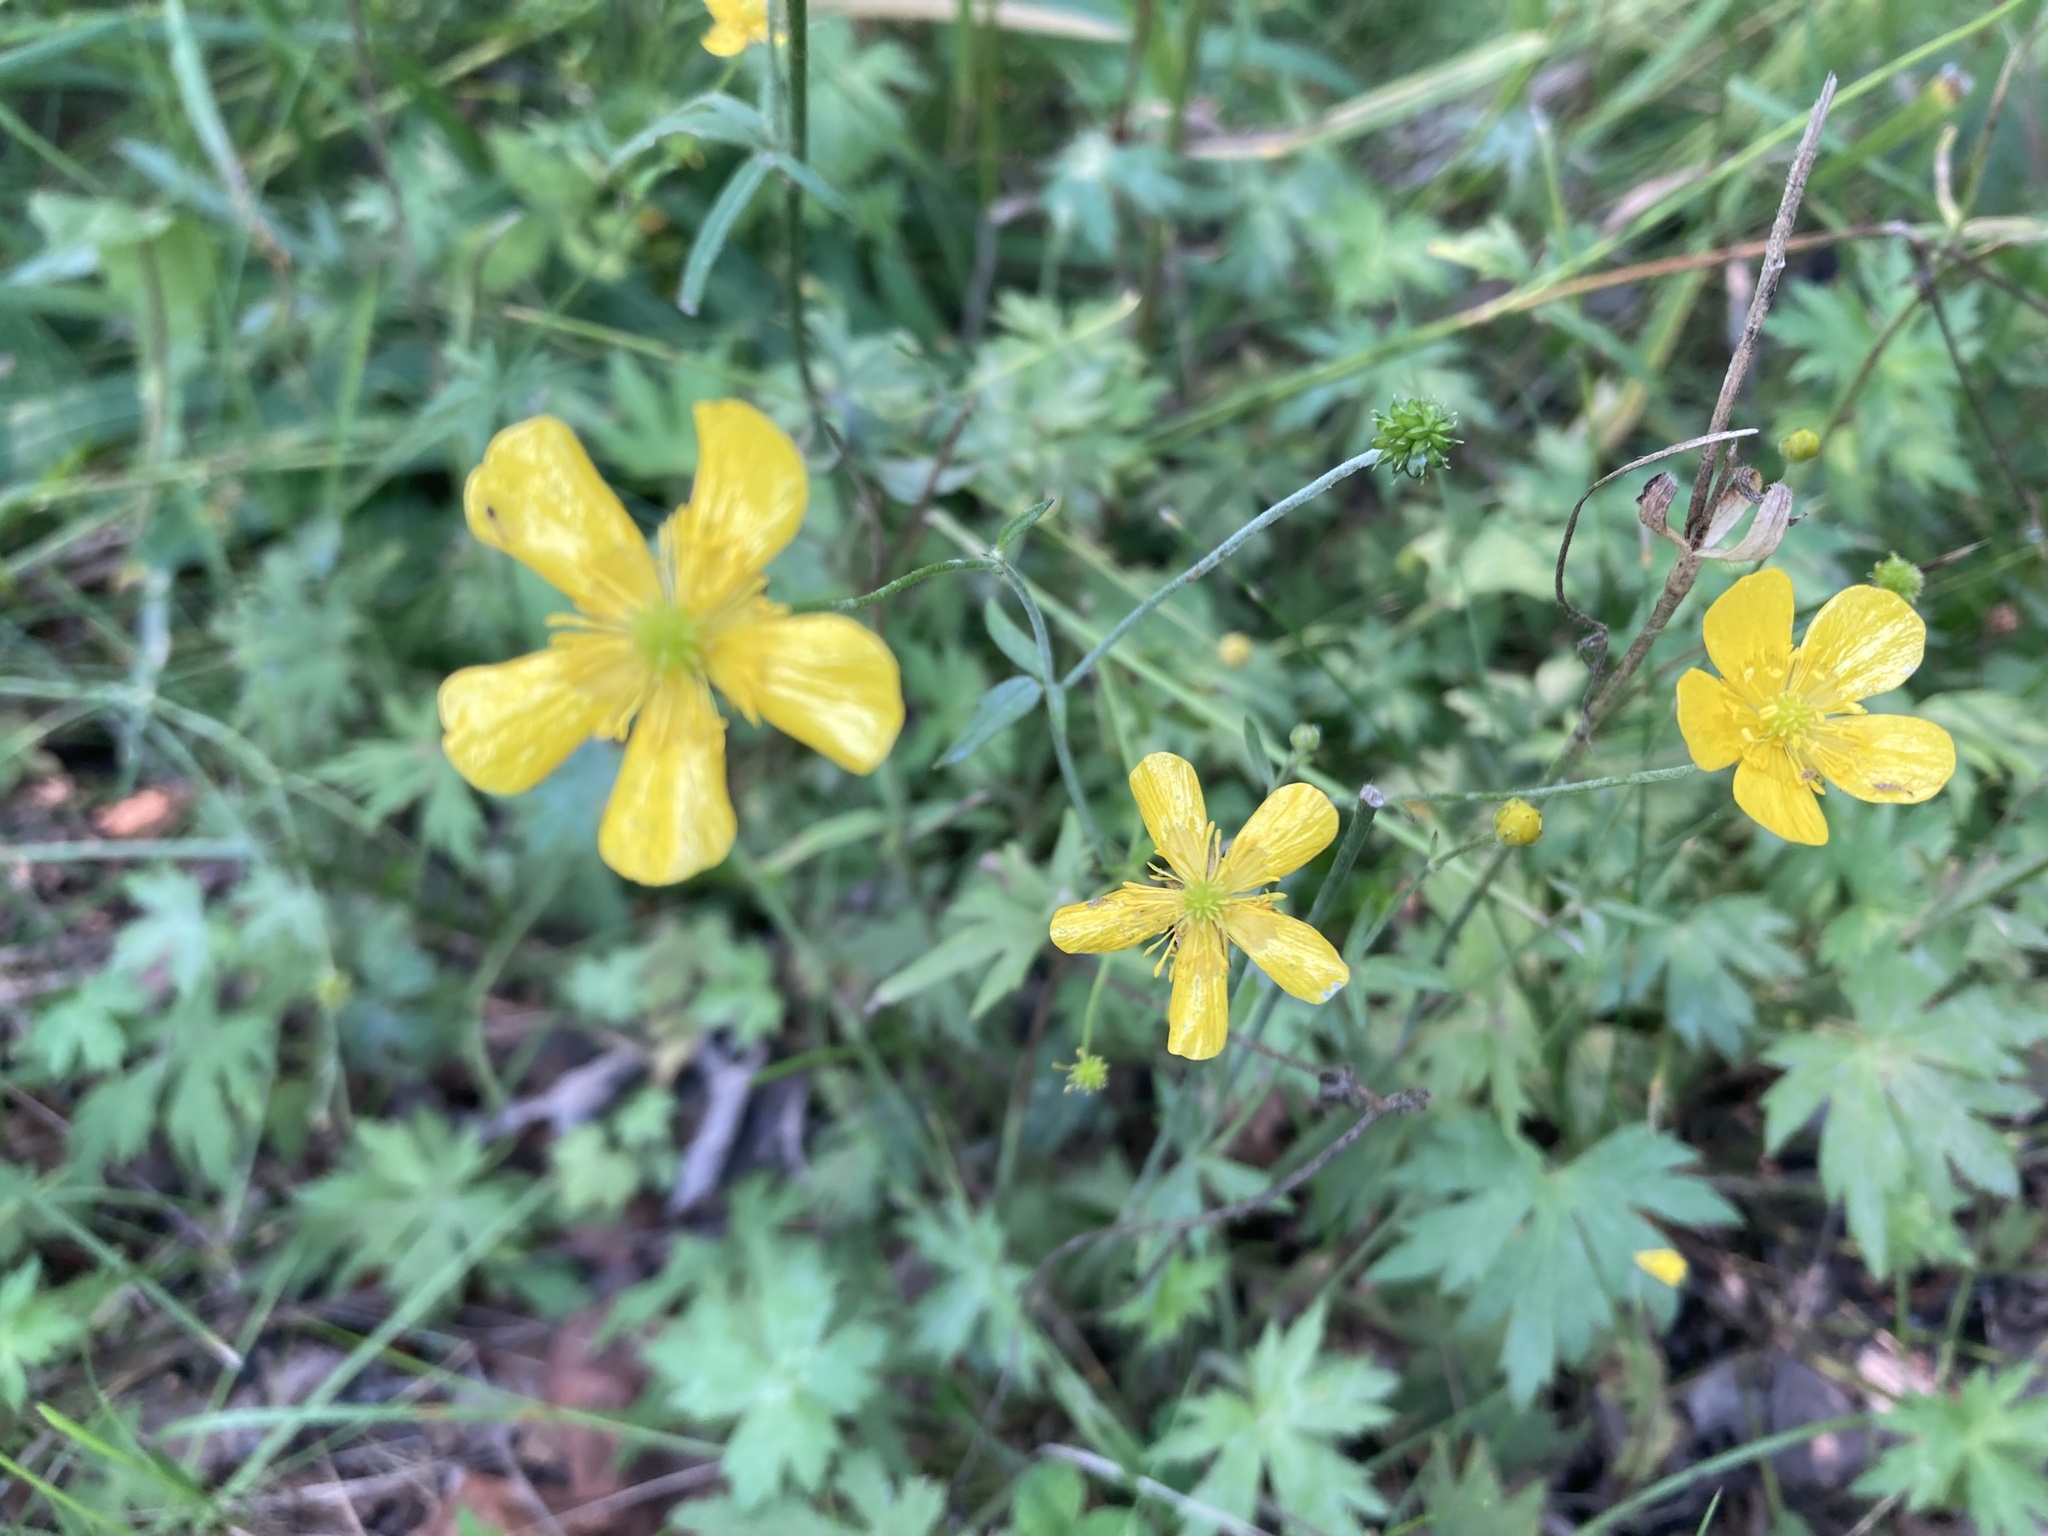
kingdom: Plantae
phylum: Tracheophyta
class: Magnoliopsida
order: Ranunculales
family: Ranunculaceae
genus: Ranunculus
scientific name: Ranunculus acris
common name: Meadow buttercup
